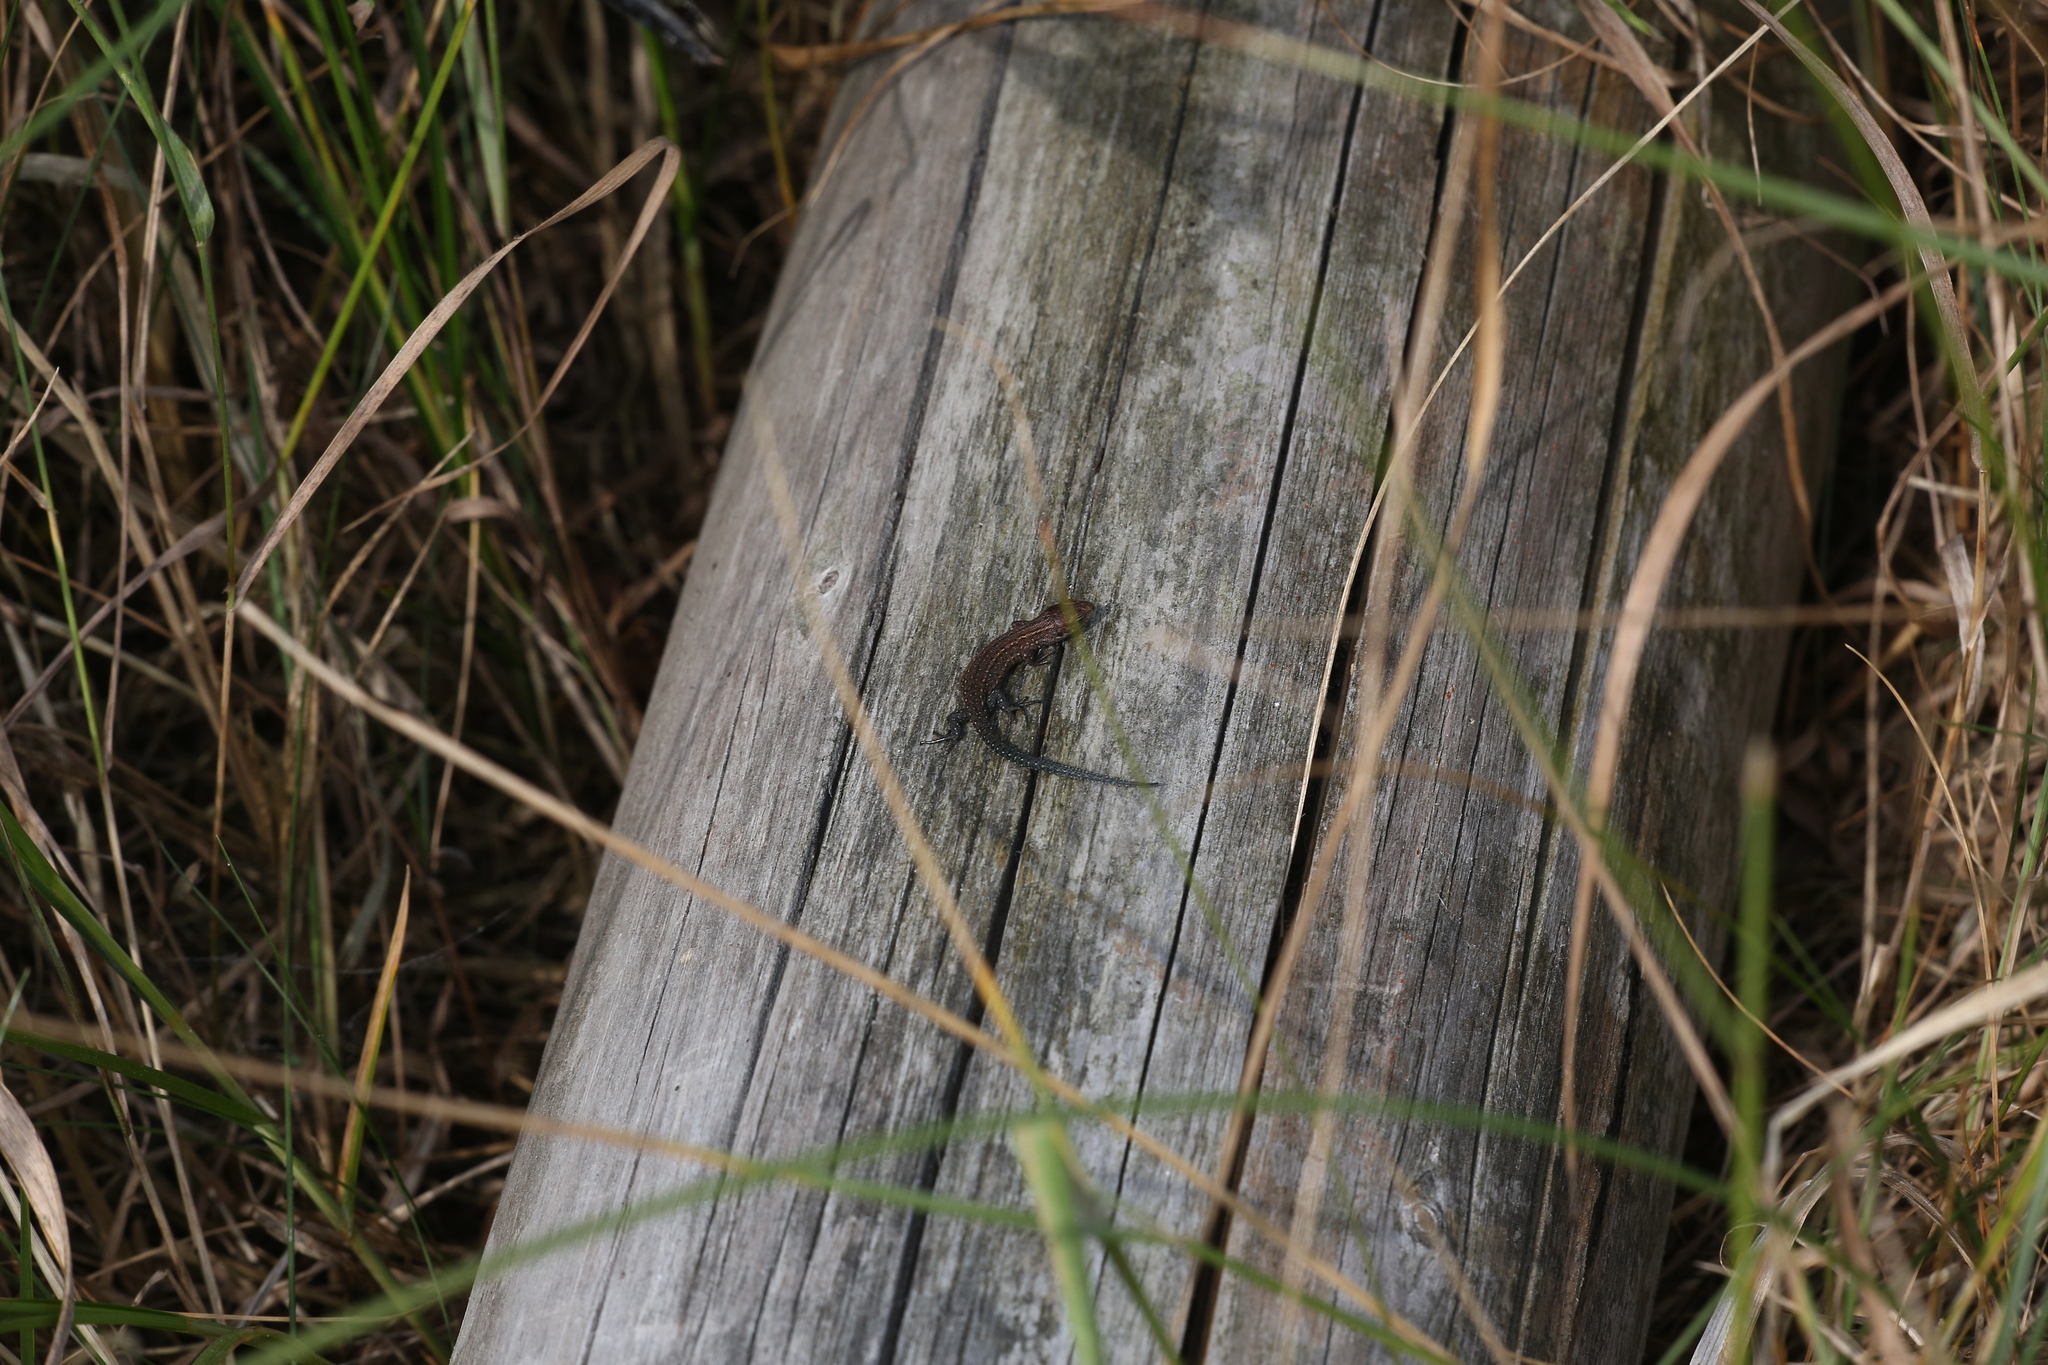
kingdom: Animalia
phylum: Chordata
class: Squamata
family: Lacertidae
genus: Zootoca
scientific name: Zootoca vivipara
